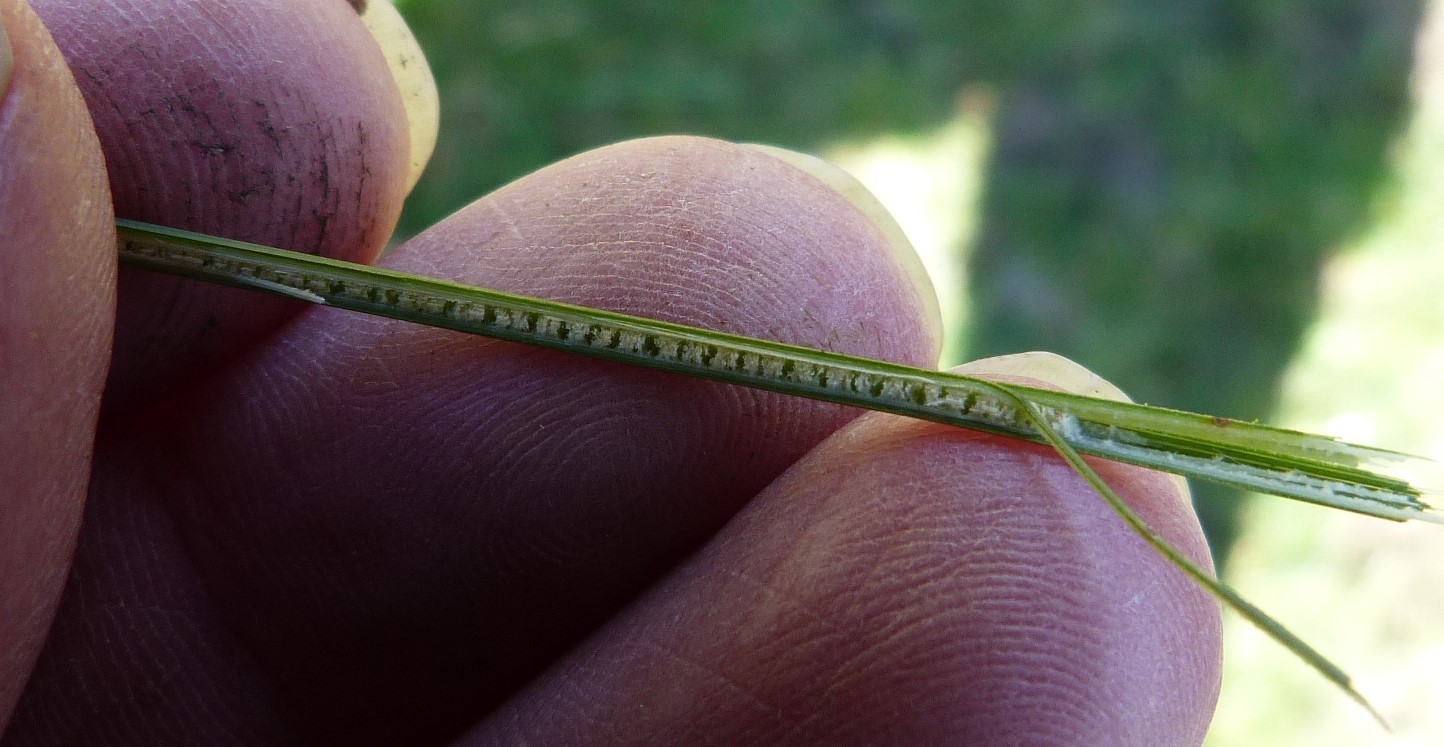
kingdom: Plantae
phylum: Tracheophyta
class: Liliopsida
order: Poales
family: Juncaceae
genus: Juncus
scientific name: Juncus sarophorus
